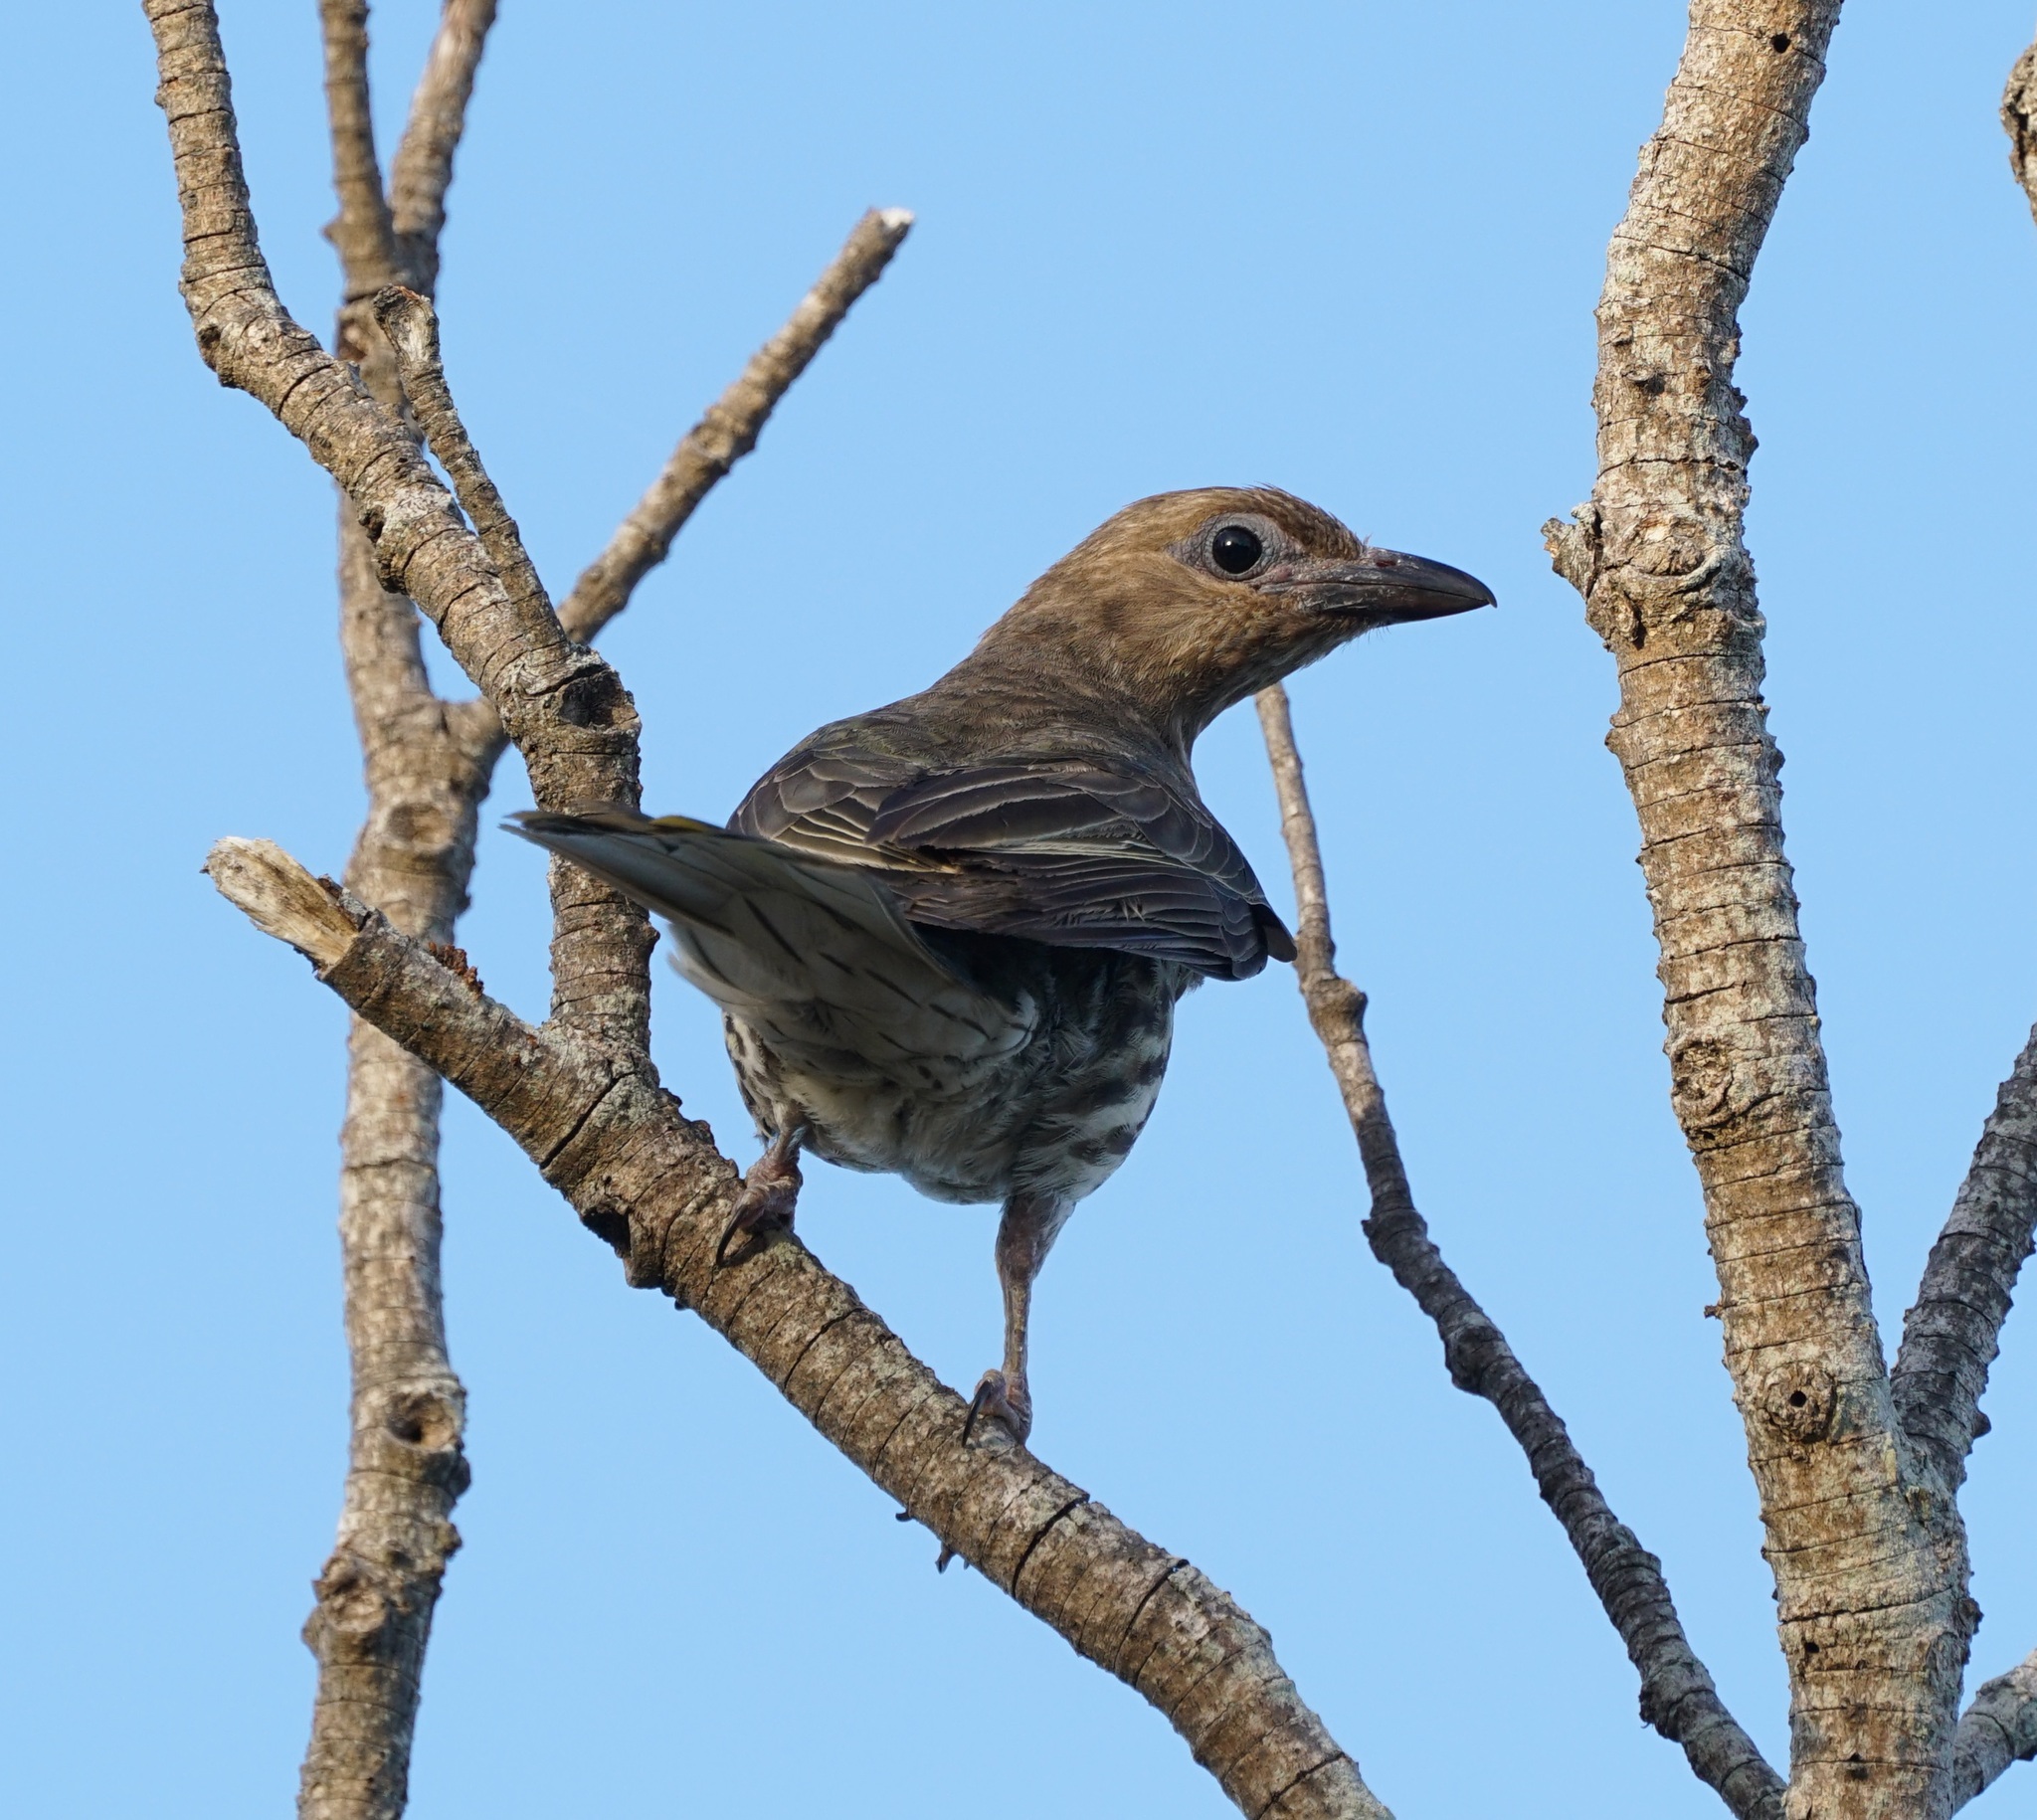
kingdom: Animalia
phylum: Chordata
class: Aves
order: Passeriformes
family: Oriolidae
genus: Sphecotheres
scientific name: Sphecotheres vieilloti
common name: Australasian figbird
